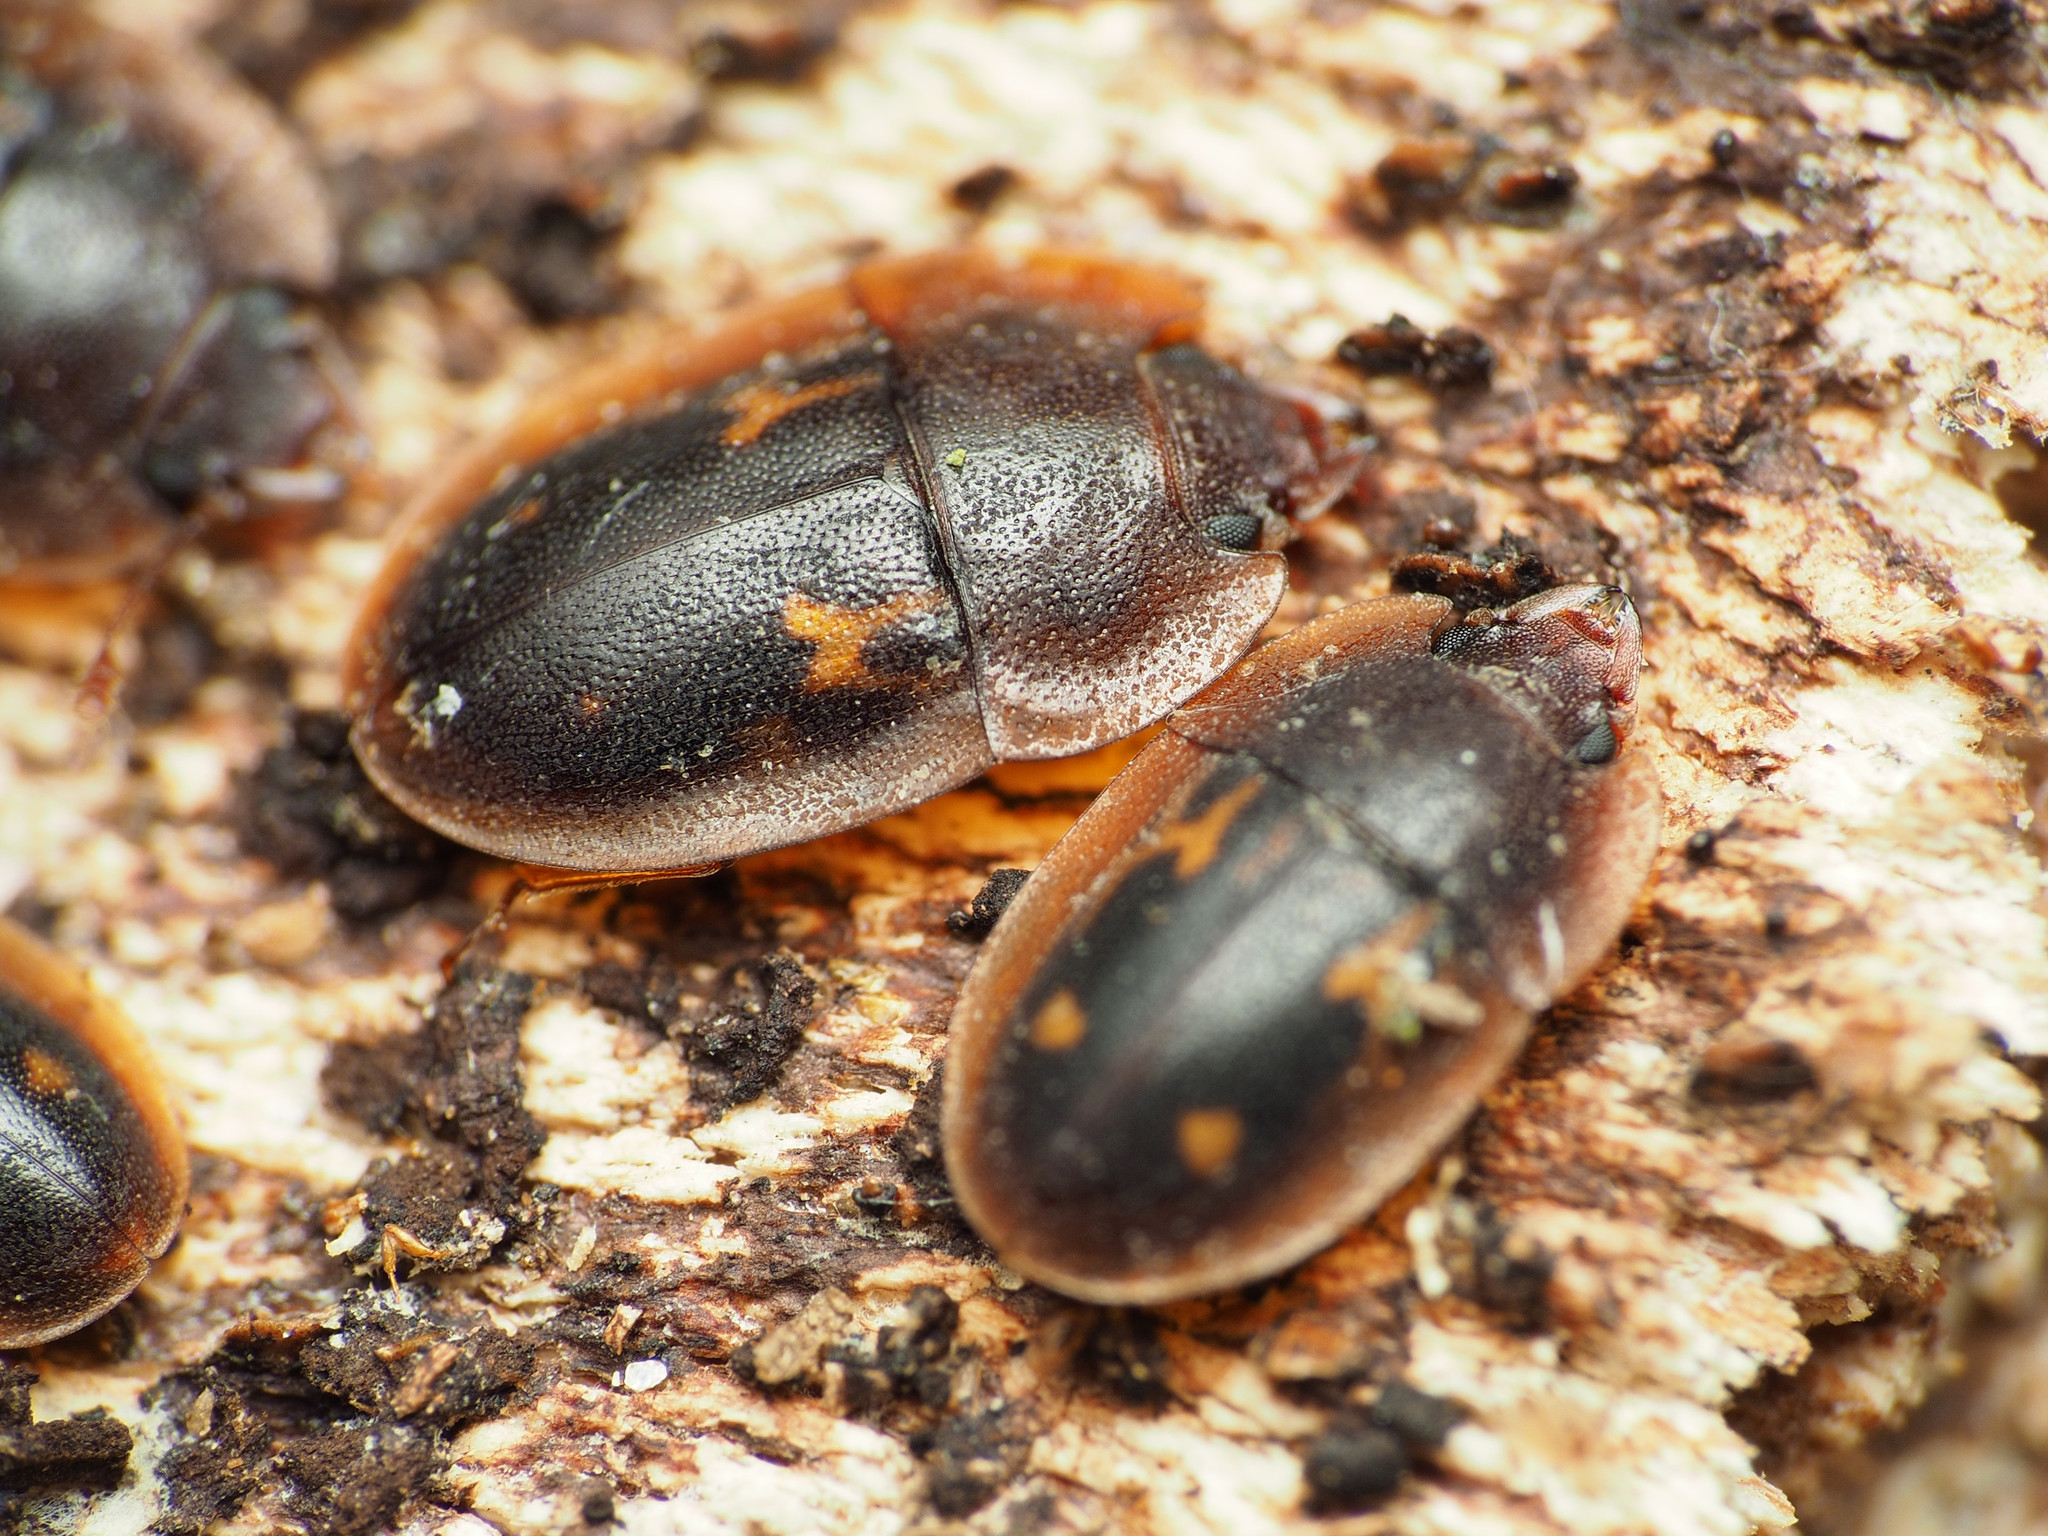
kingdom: Animalia
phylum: Arthropoda
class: Insecta
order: Coleoptera
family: Nitidulidae
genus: Prometopia
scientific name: Prometopia sexmaculata
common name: Six-spotted sap-feeding beetle
